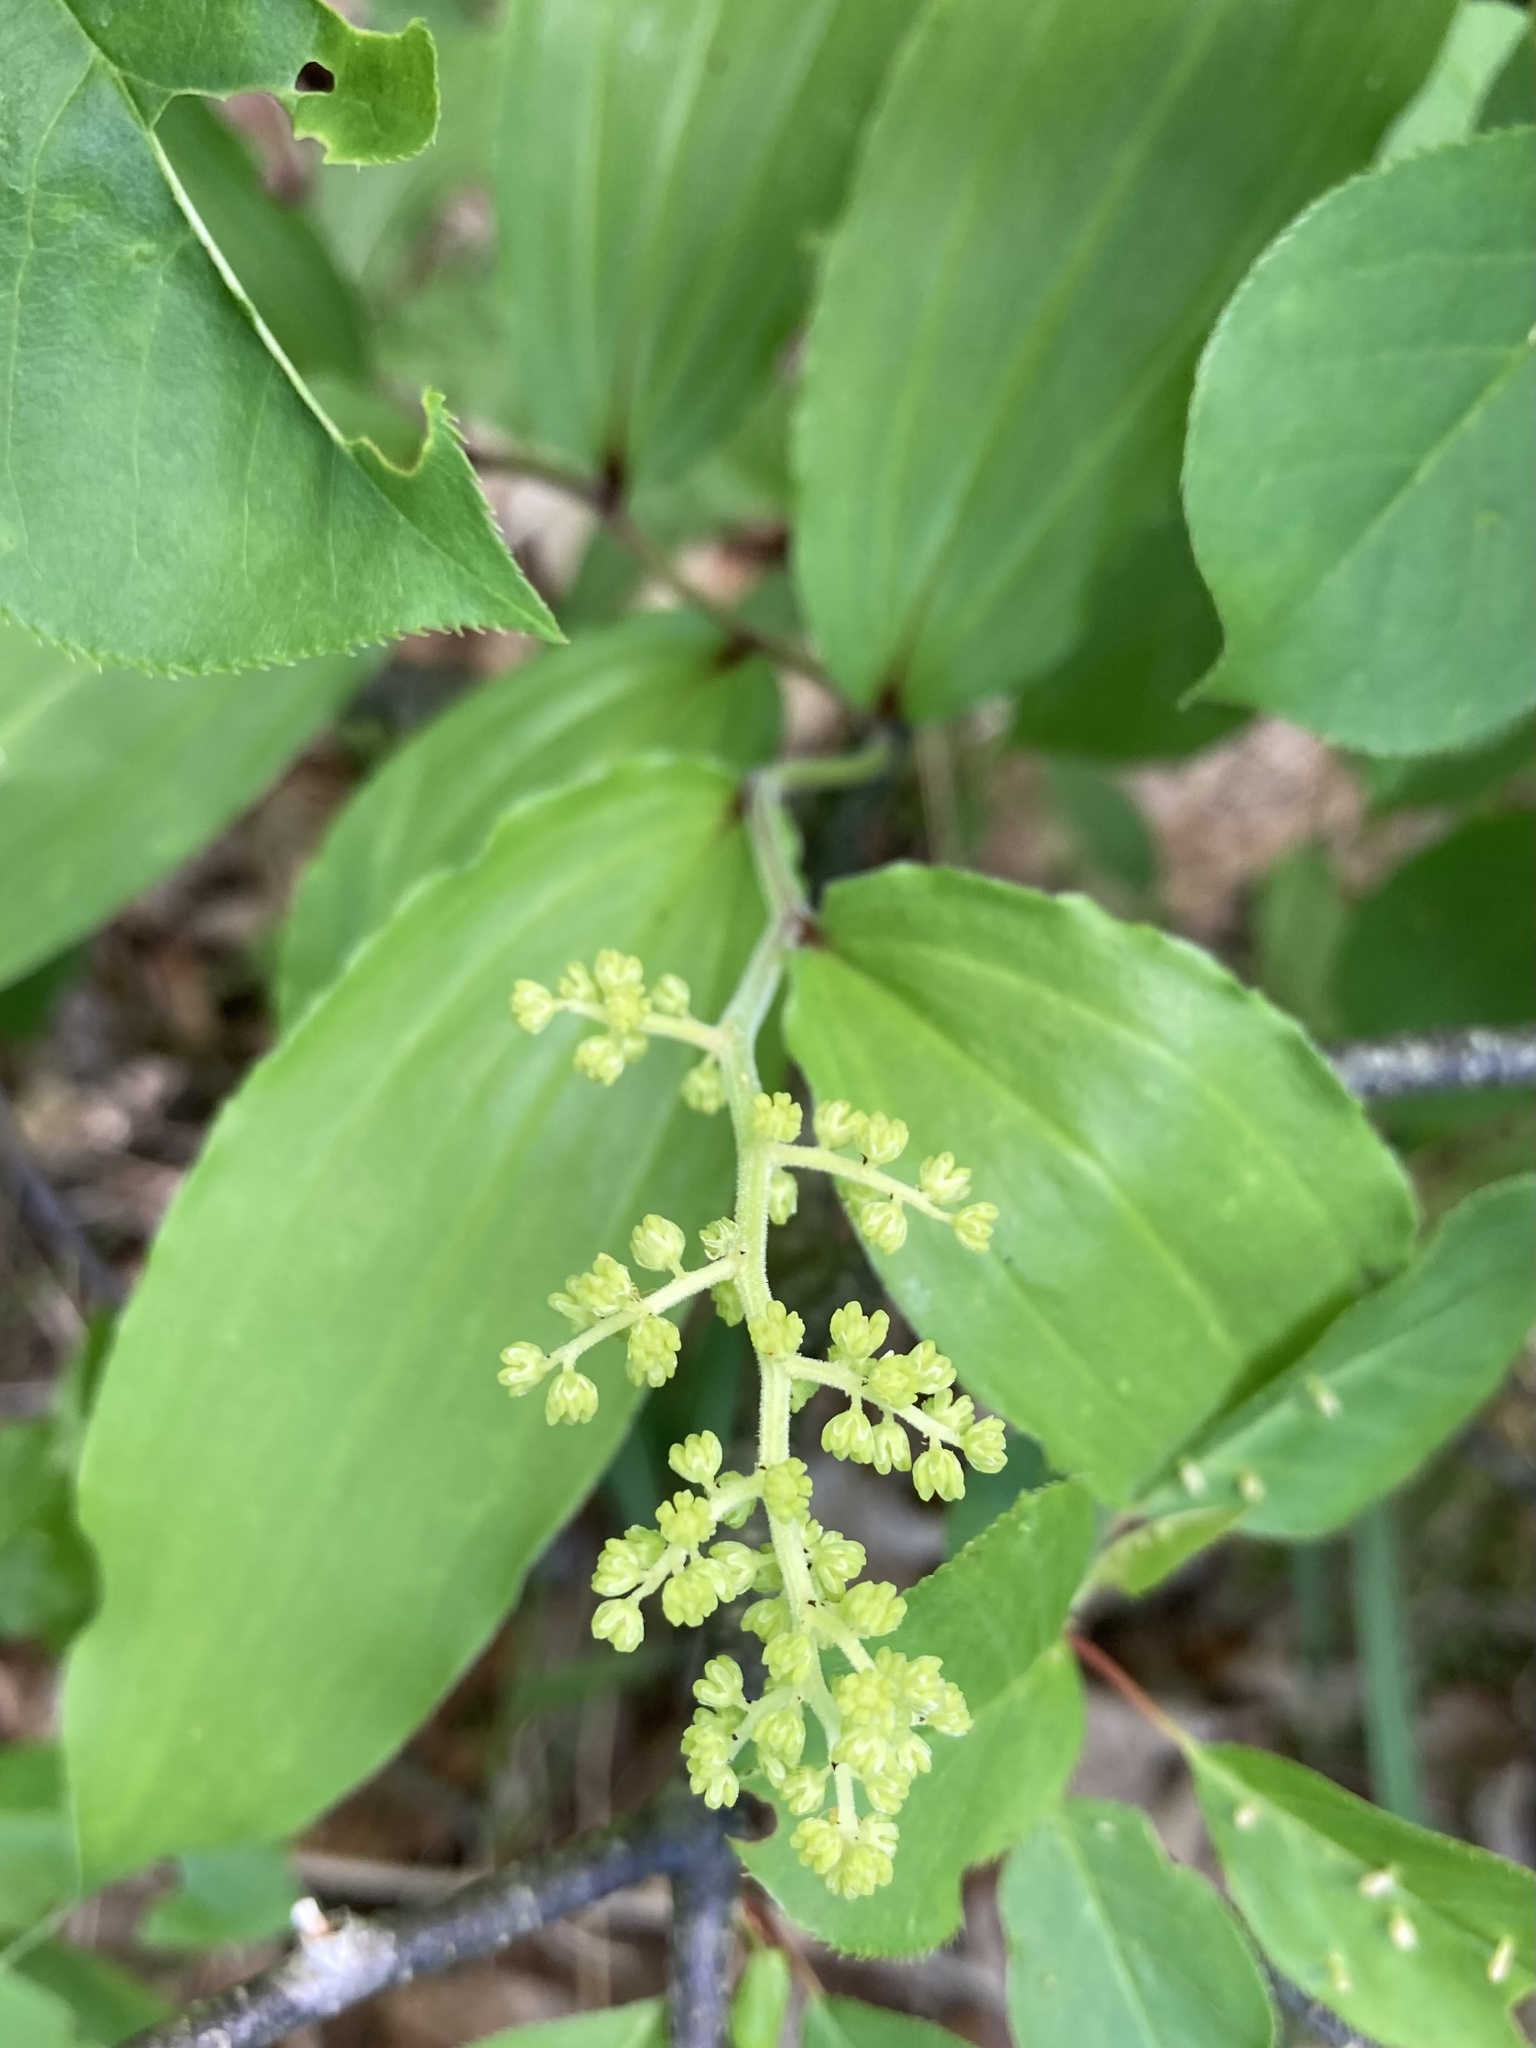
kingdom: Plantae
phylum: Tracheophyta
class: Liliopsida
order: Asparagales
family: Asparagaceae
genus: Maianthemum
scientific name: Maianthemum racemosum
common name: False spikenard
